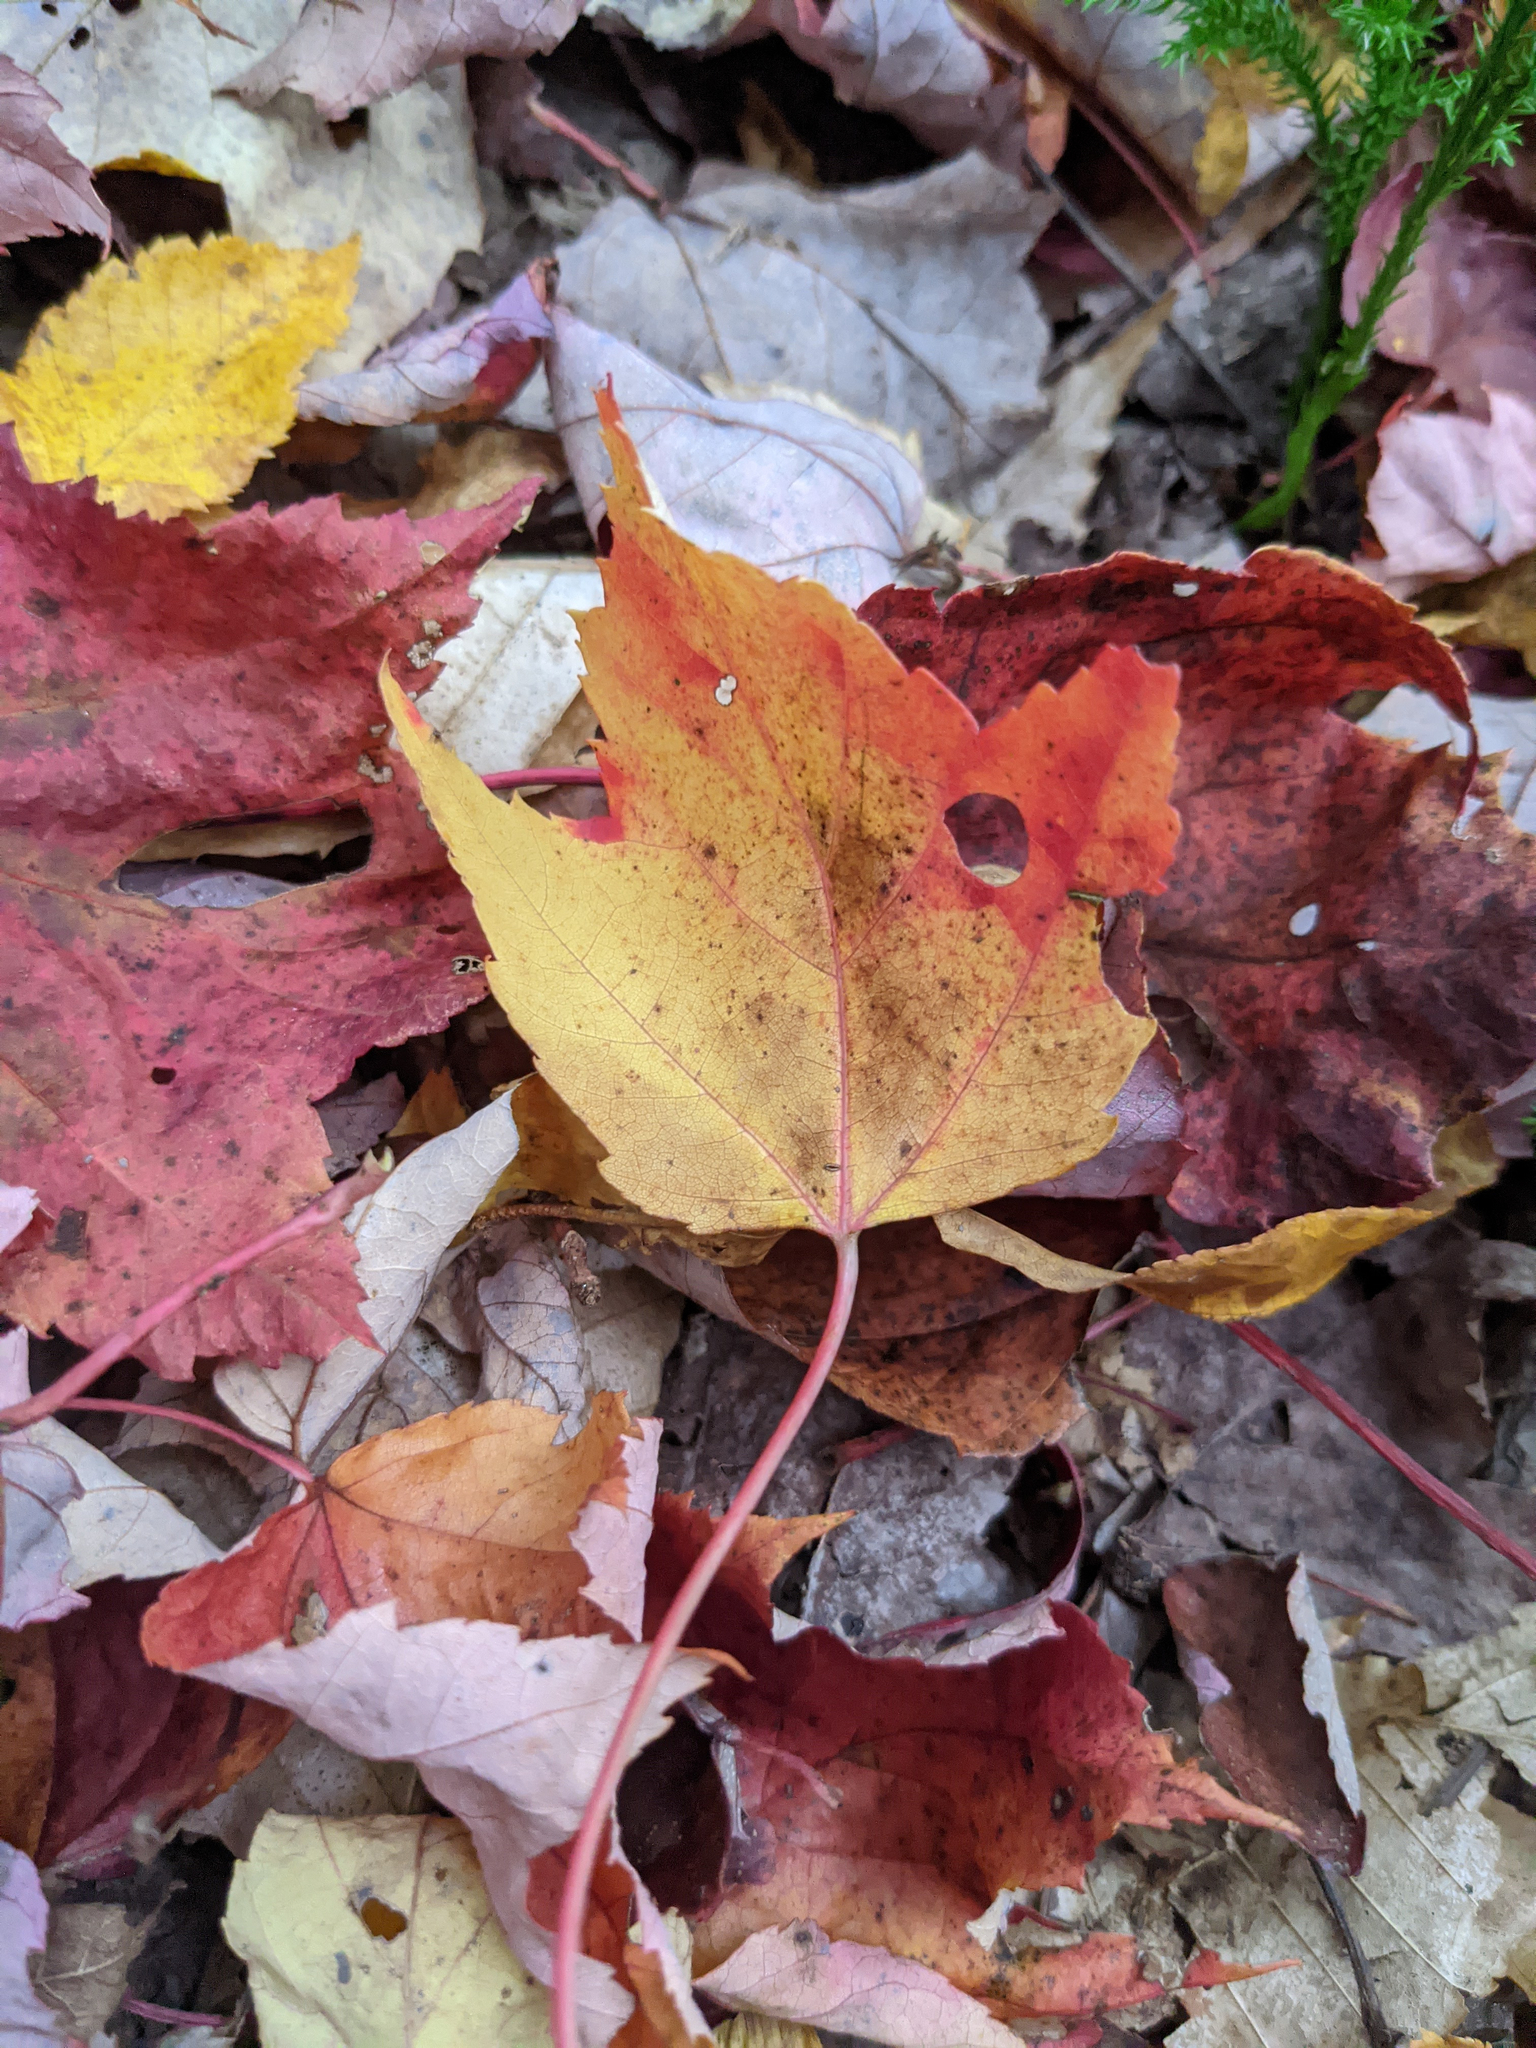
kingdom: Plantae
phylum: Tracheophyta
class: Magnoliopsida
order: Sapindales
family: Sapindaceae
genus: Acer
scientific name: Acer rubrum
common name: Red maple
